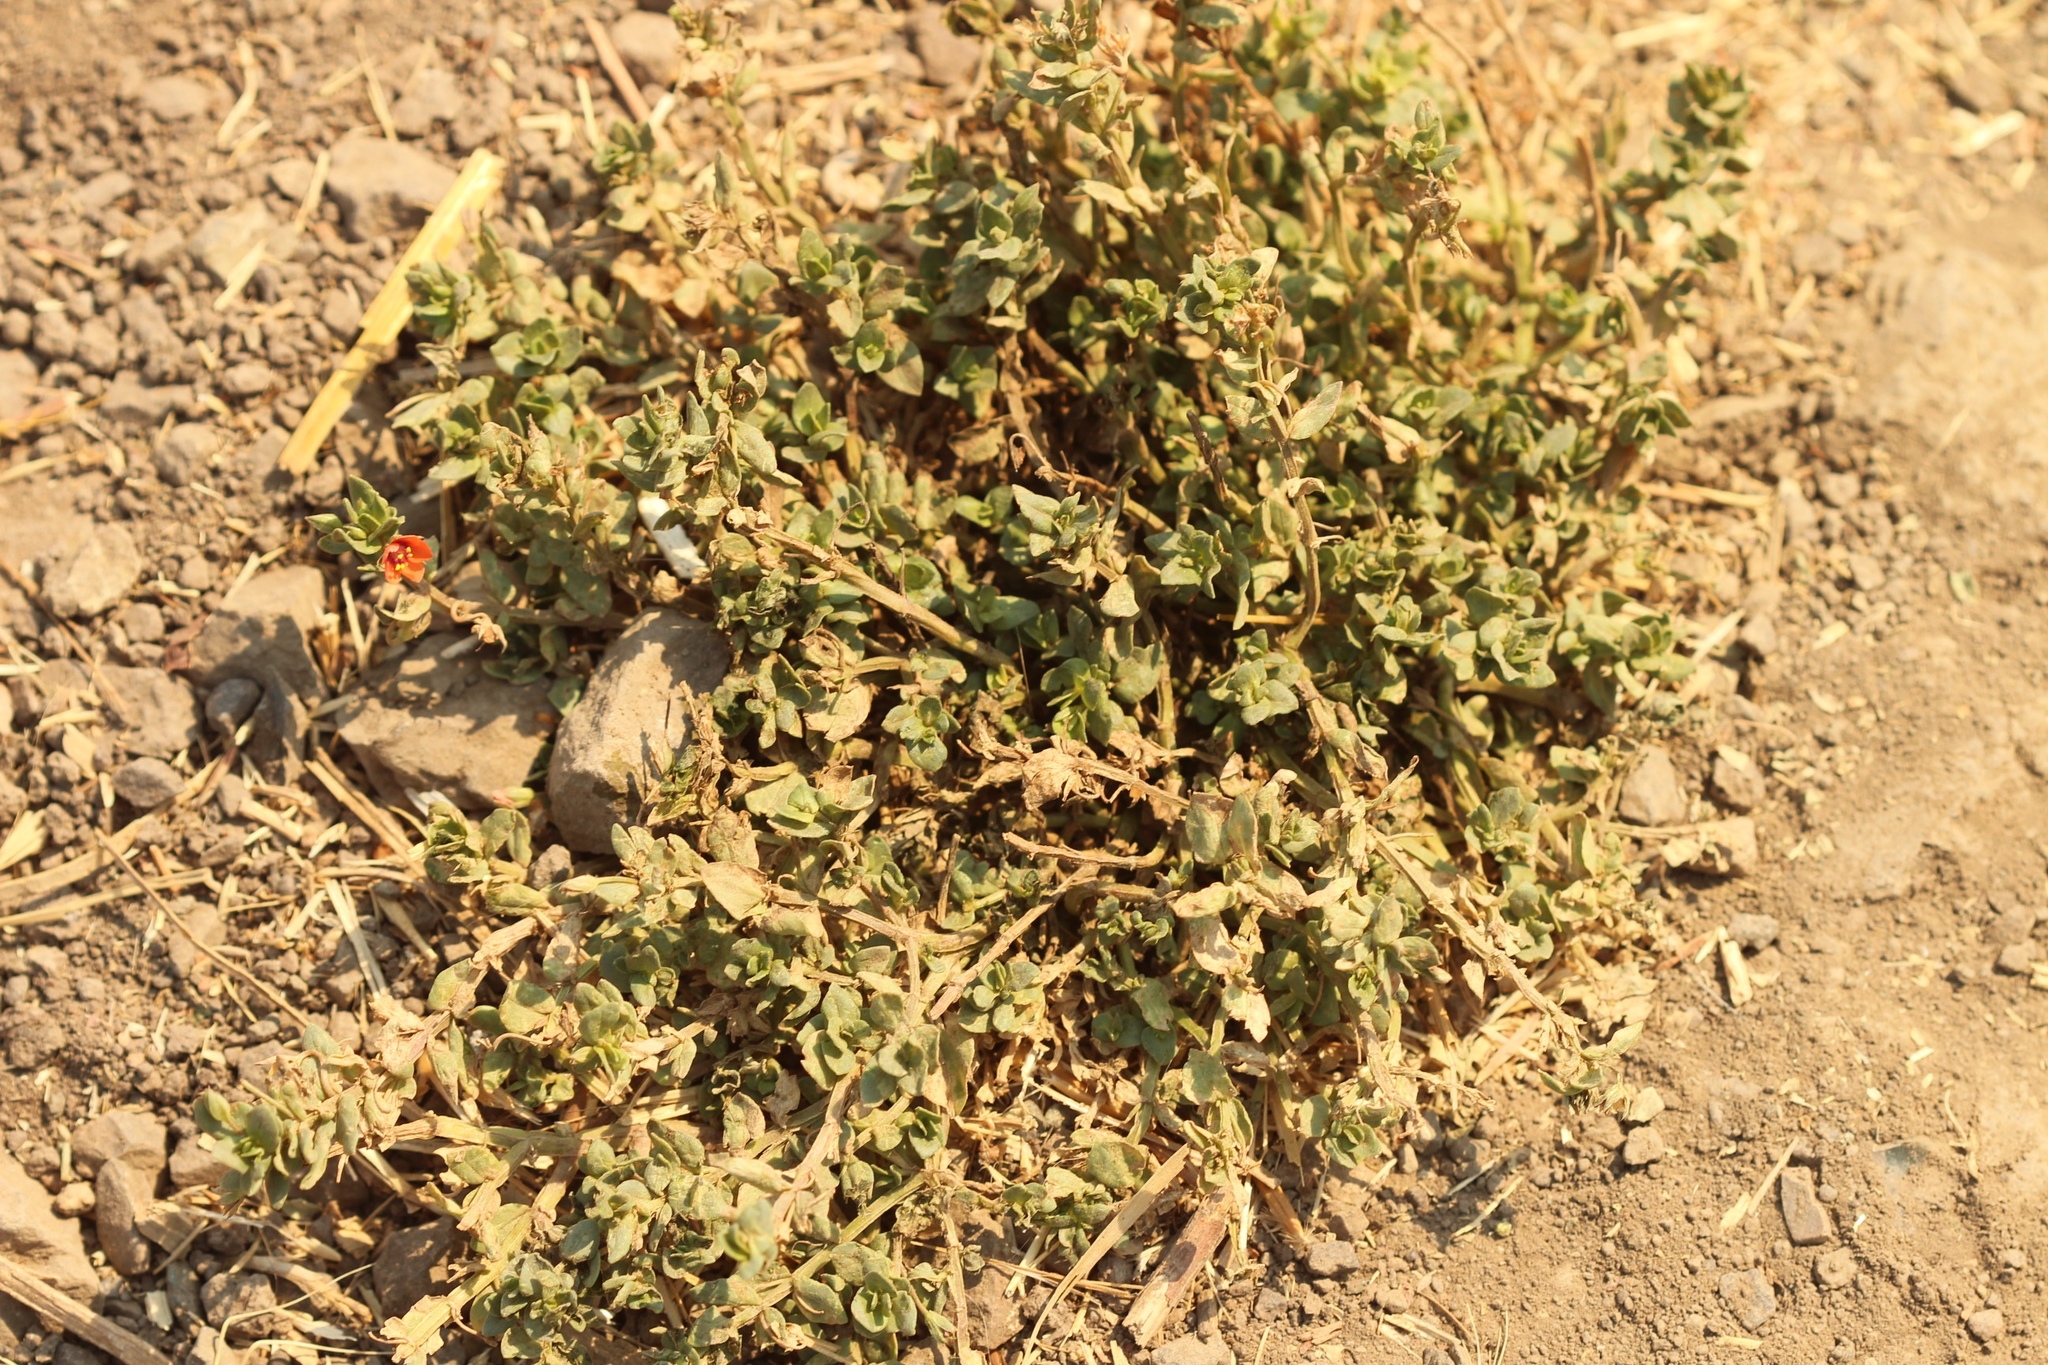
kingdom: Plantae
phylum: Tracheophyta
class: Magnoliopsida
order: Ericales
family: Primulaceae
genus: Lysimachia
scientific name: Lysimachia arvensis
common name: Scarlet pimpernel
